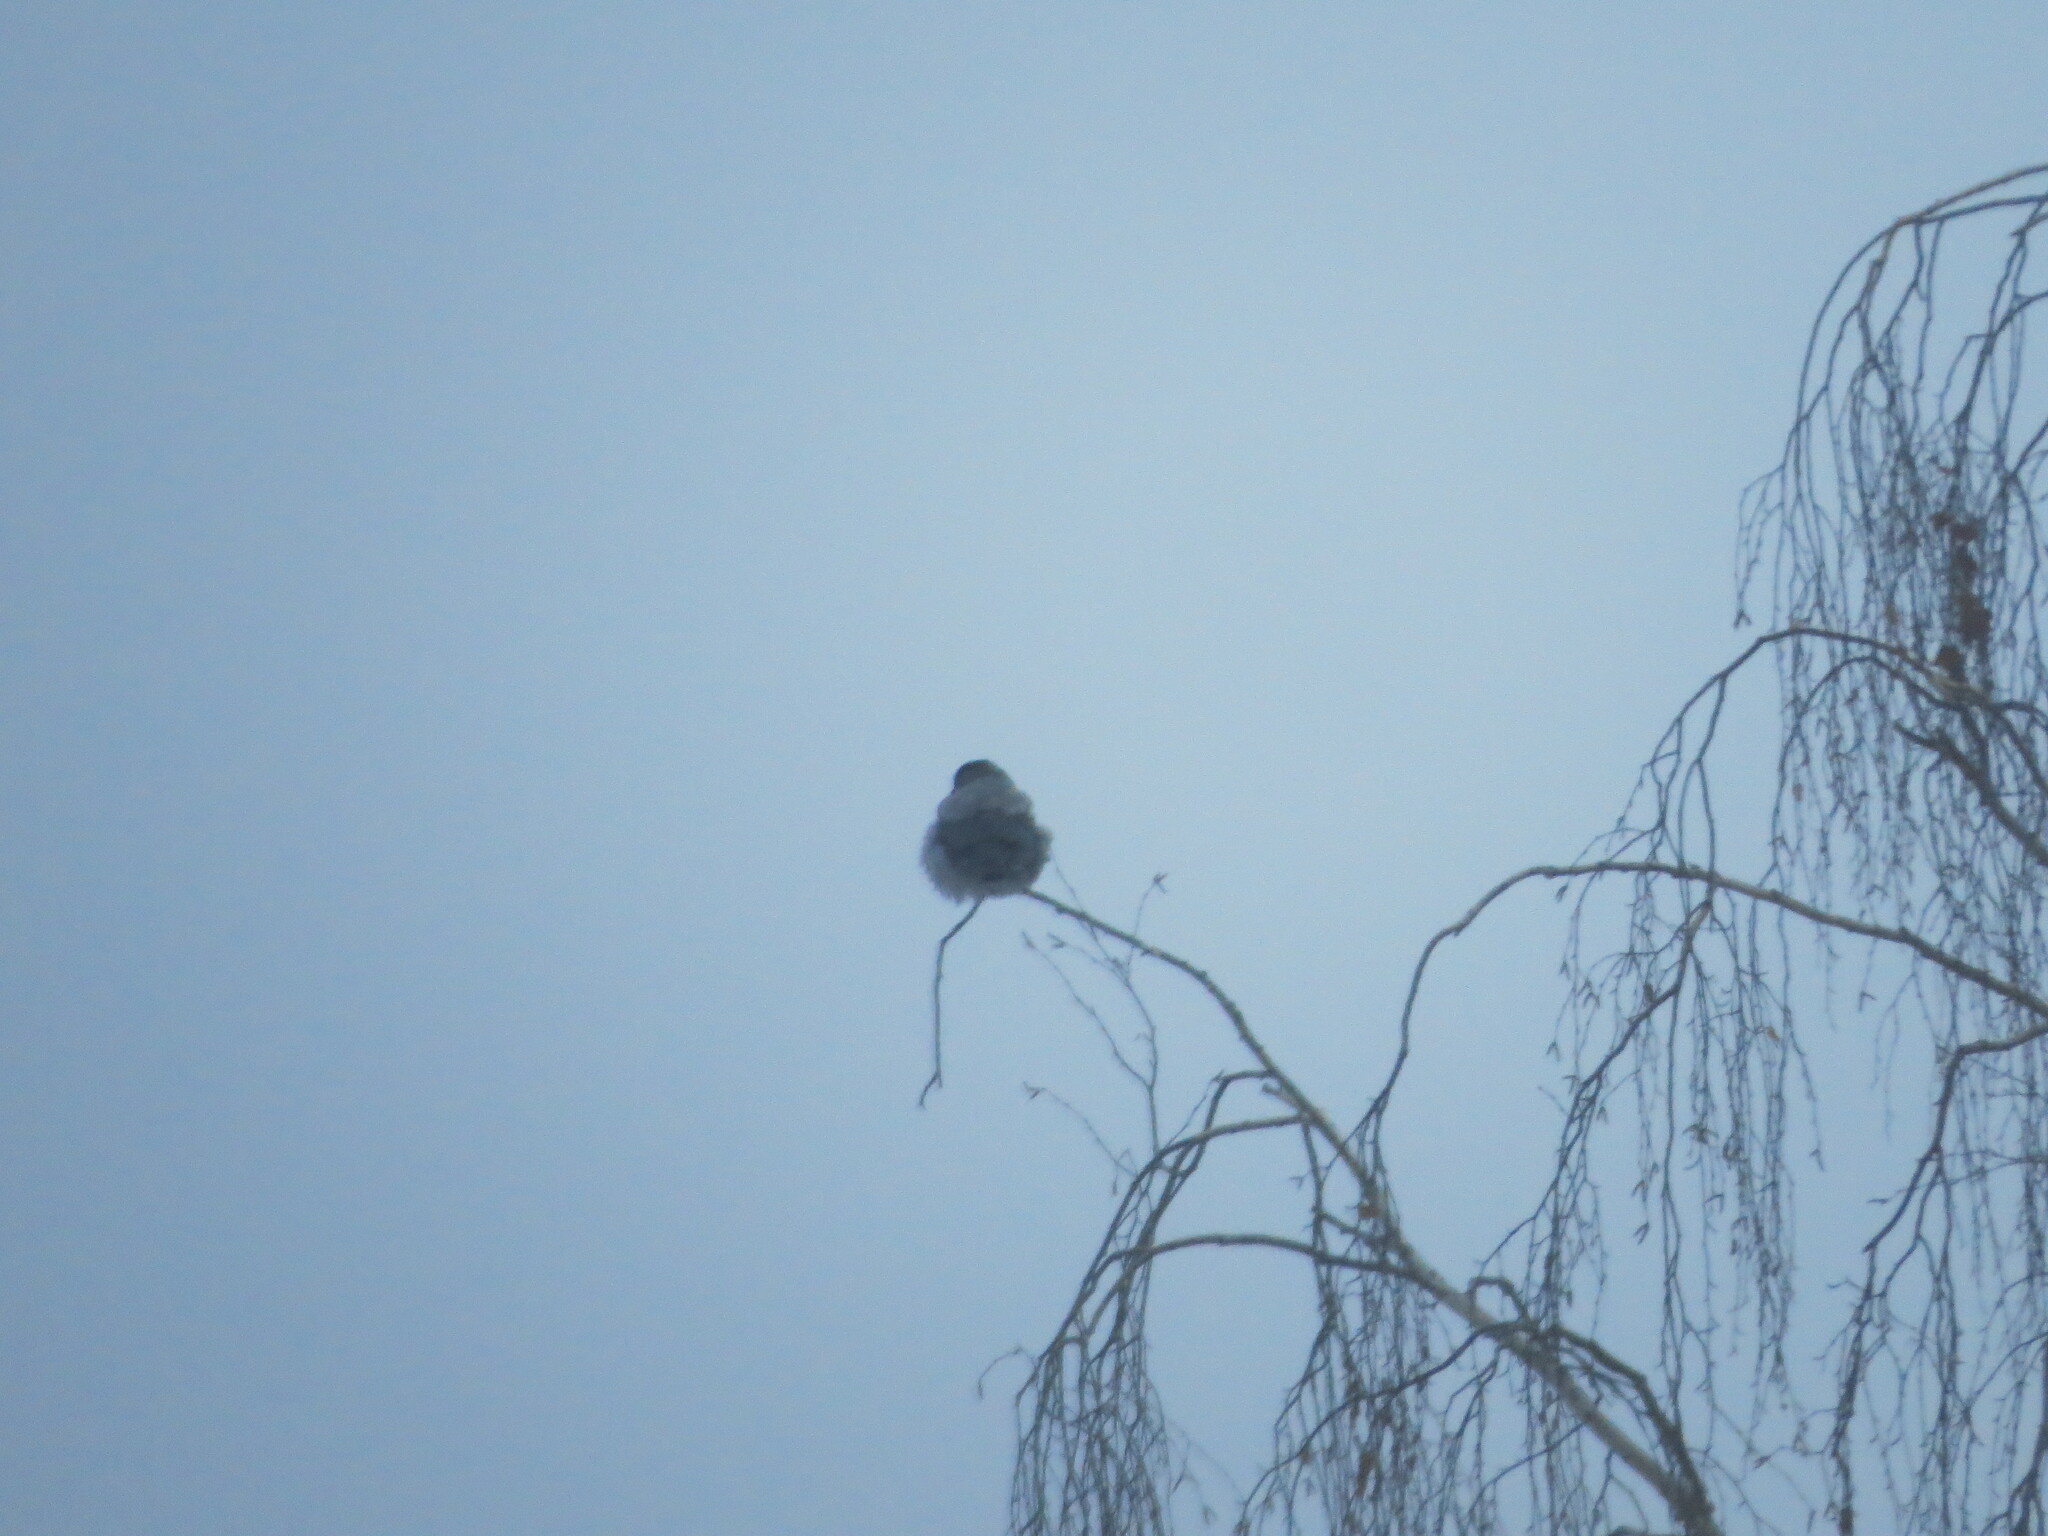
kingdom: Animalia
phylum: Chordata
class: Aves
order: Passeriformes
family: Corvidae
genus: Corvus
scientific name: Corvus cornix
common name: Hooded crow
